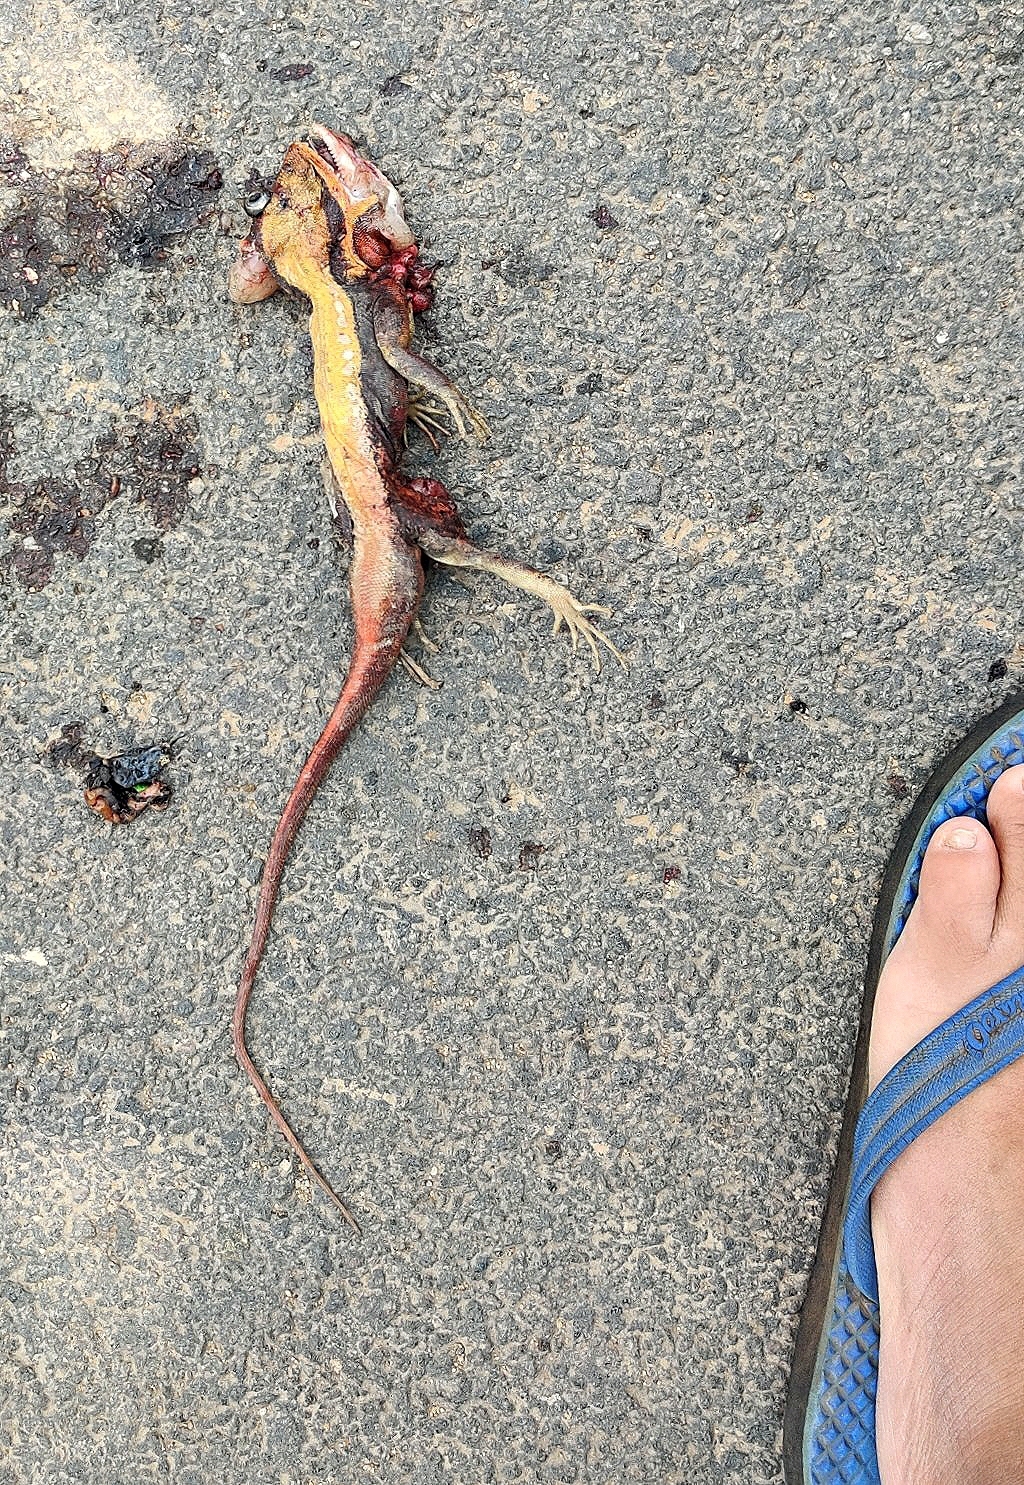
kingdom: Animalia
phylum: Chordata
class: Squamata
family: Agamidae
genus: Psammophilus
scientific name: Psammophilus dorsalis
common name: South indian rock agama
